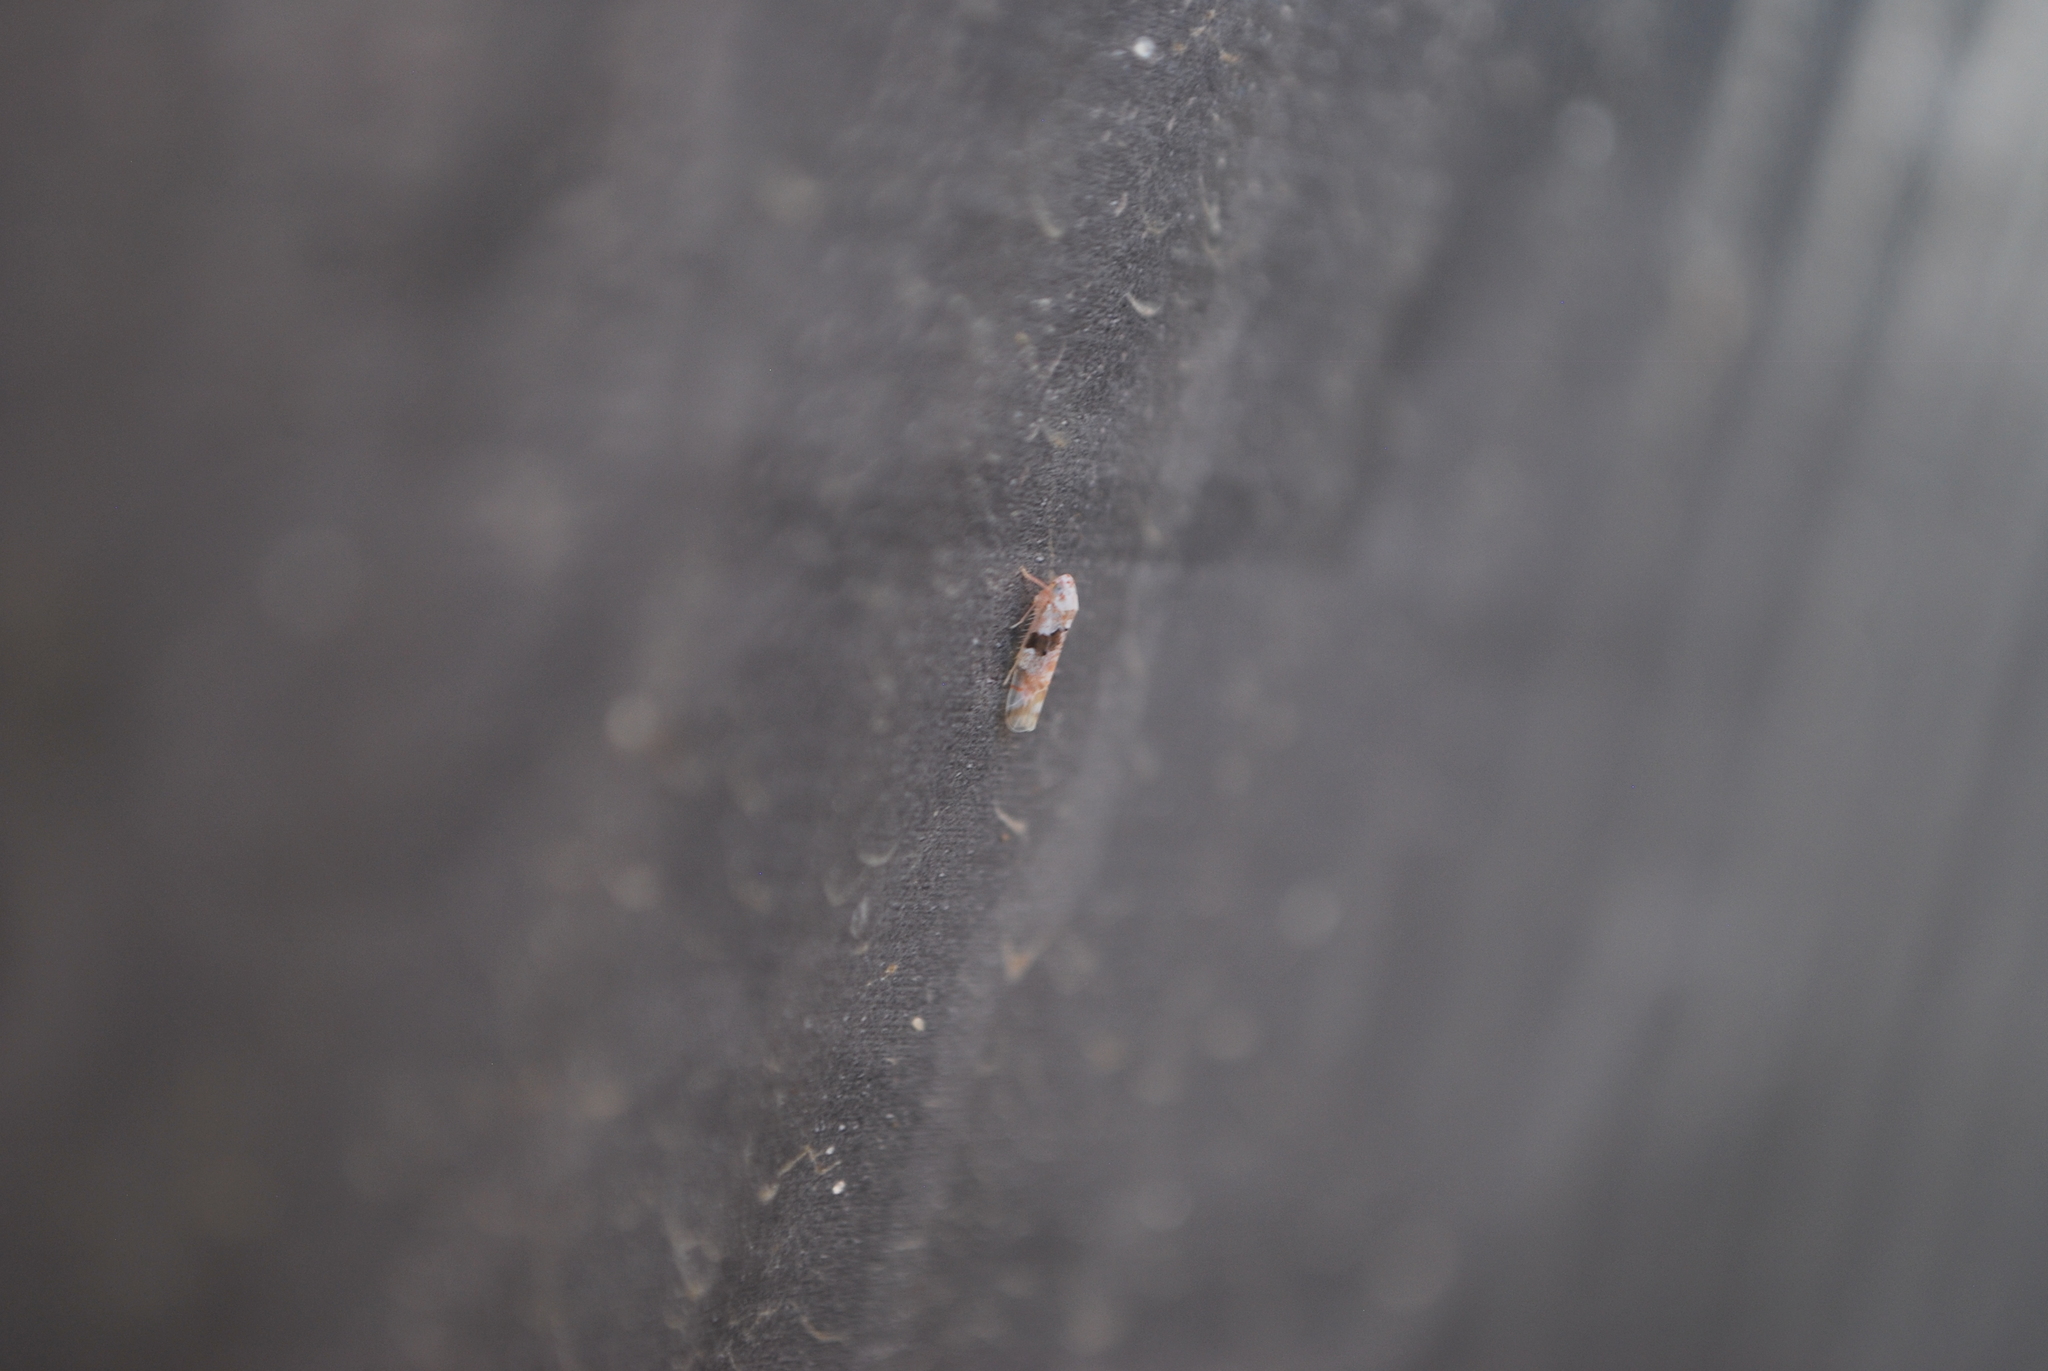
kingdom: Animalia
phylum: Arthropoda
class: Insecta
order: Hemiptera
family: Cicadellidae
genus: Hymetta
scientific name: Hymetta balteata
